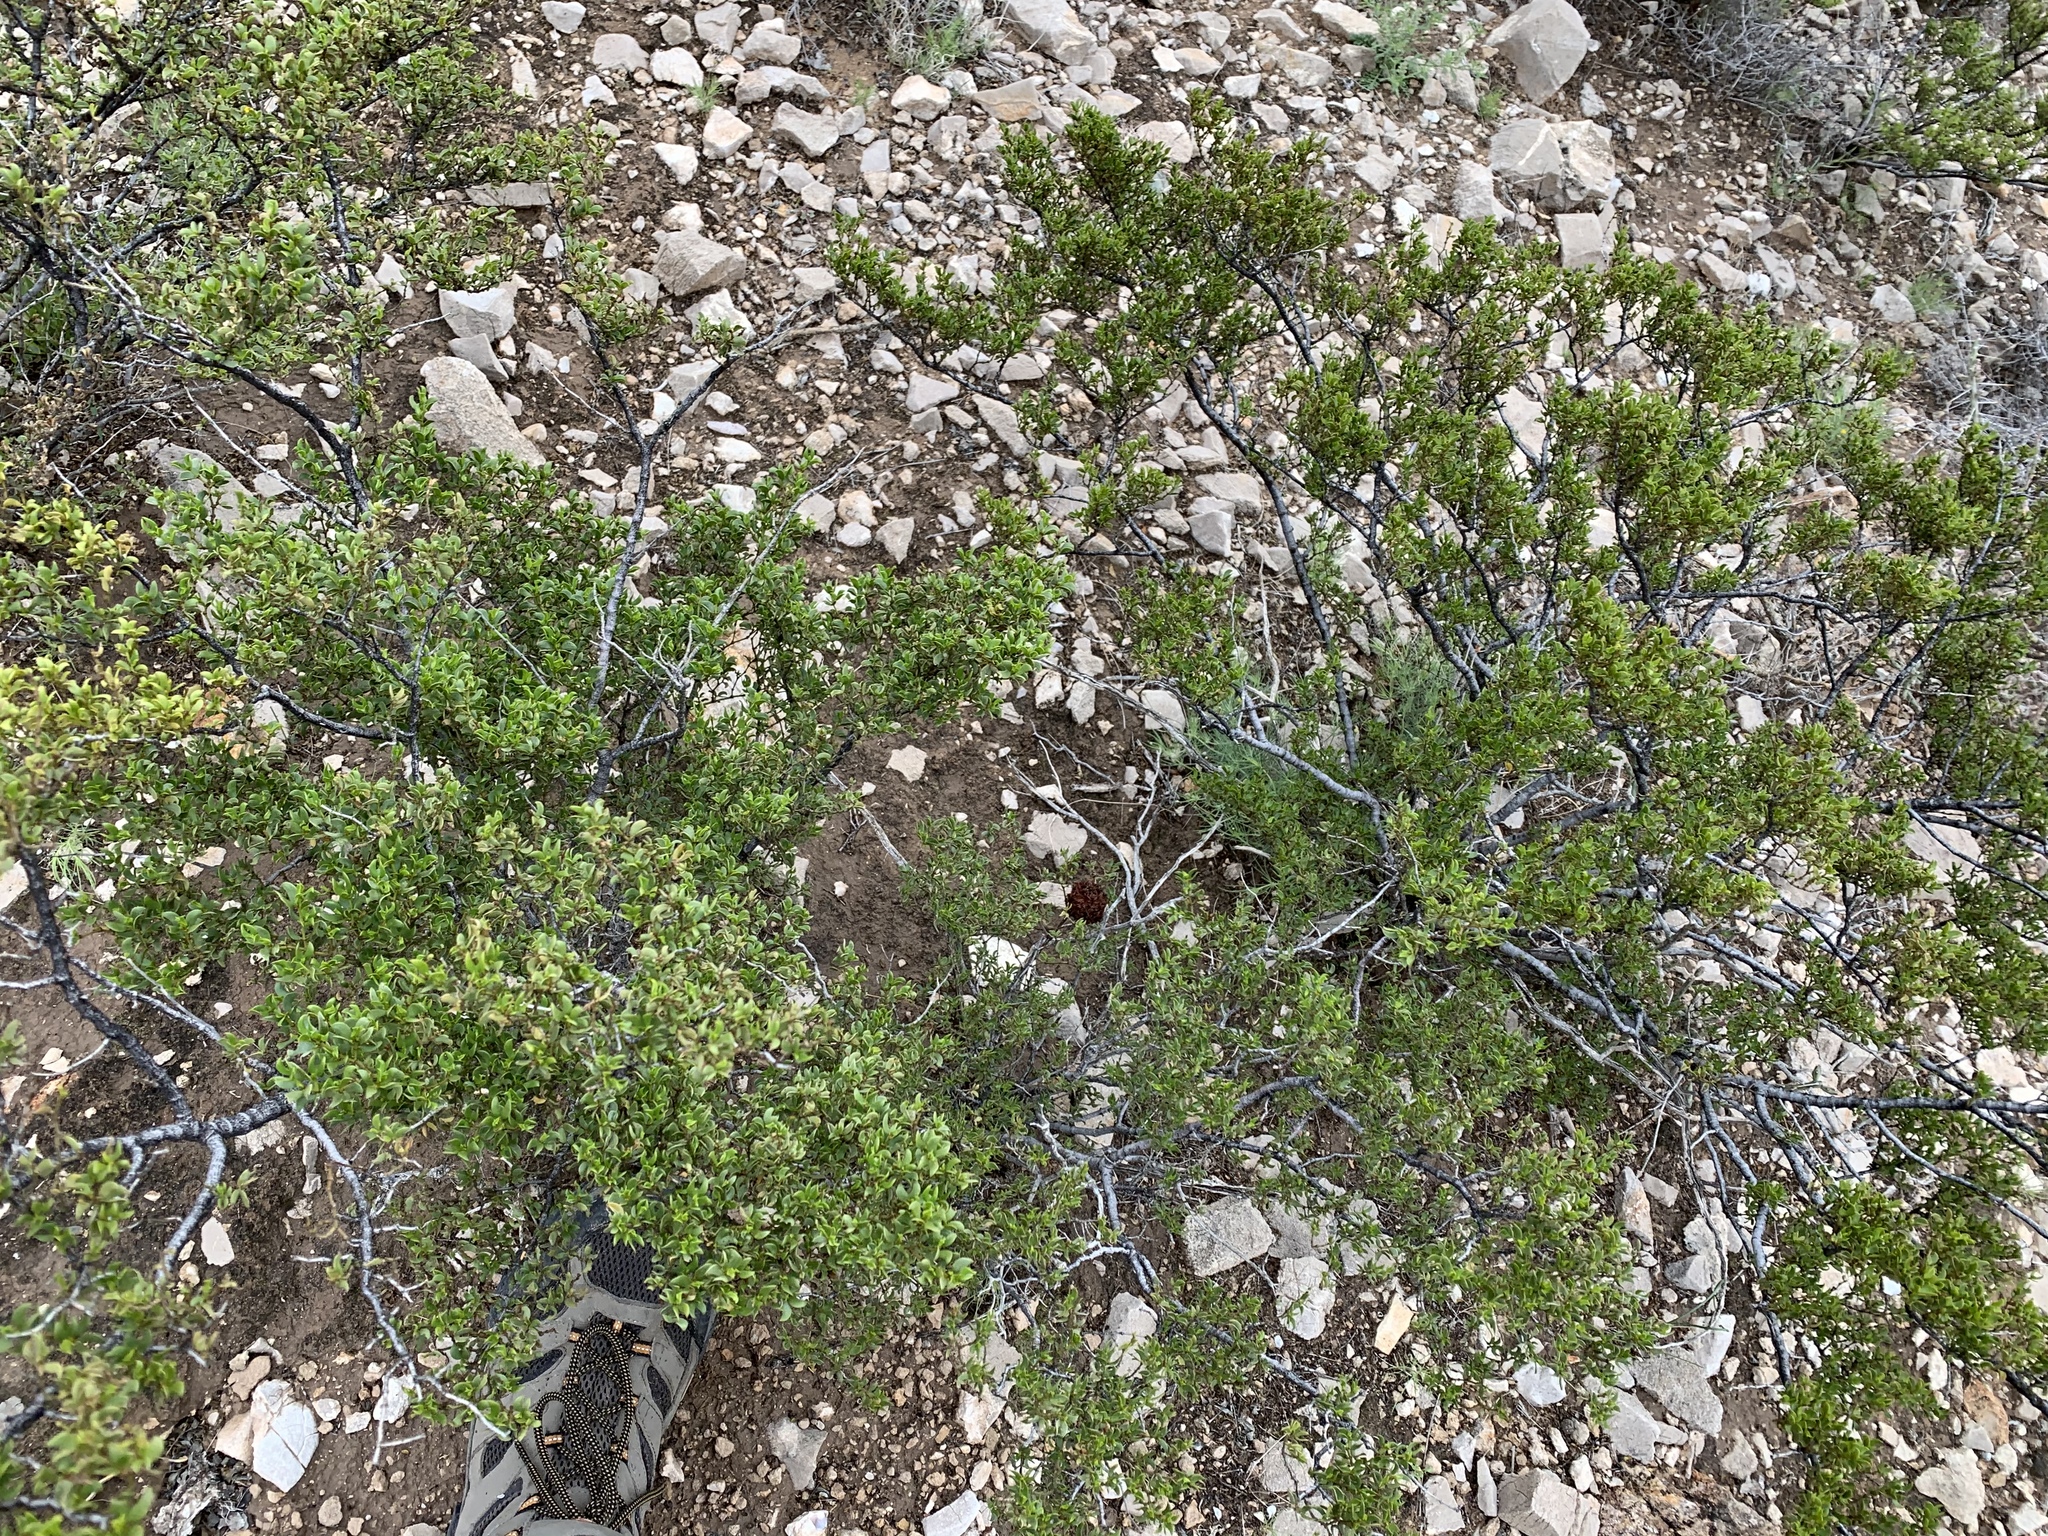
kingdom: Plantae
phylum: Tracheophyta
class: Magnoliopsida
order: Zygophyllales
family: Zygophyllaceae
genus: Larrea
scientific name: Larrea tridentata
